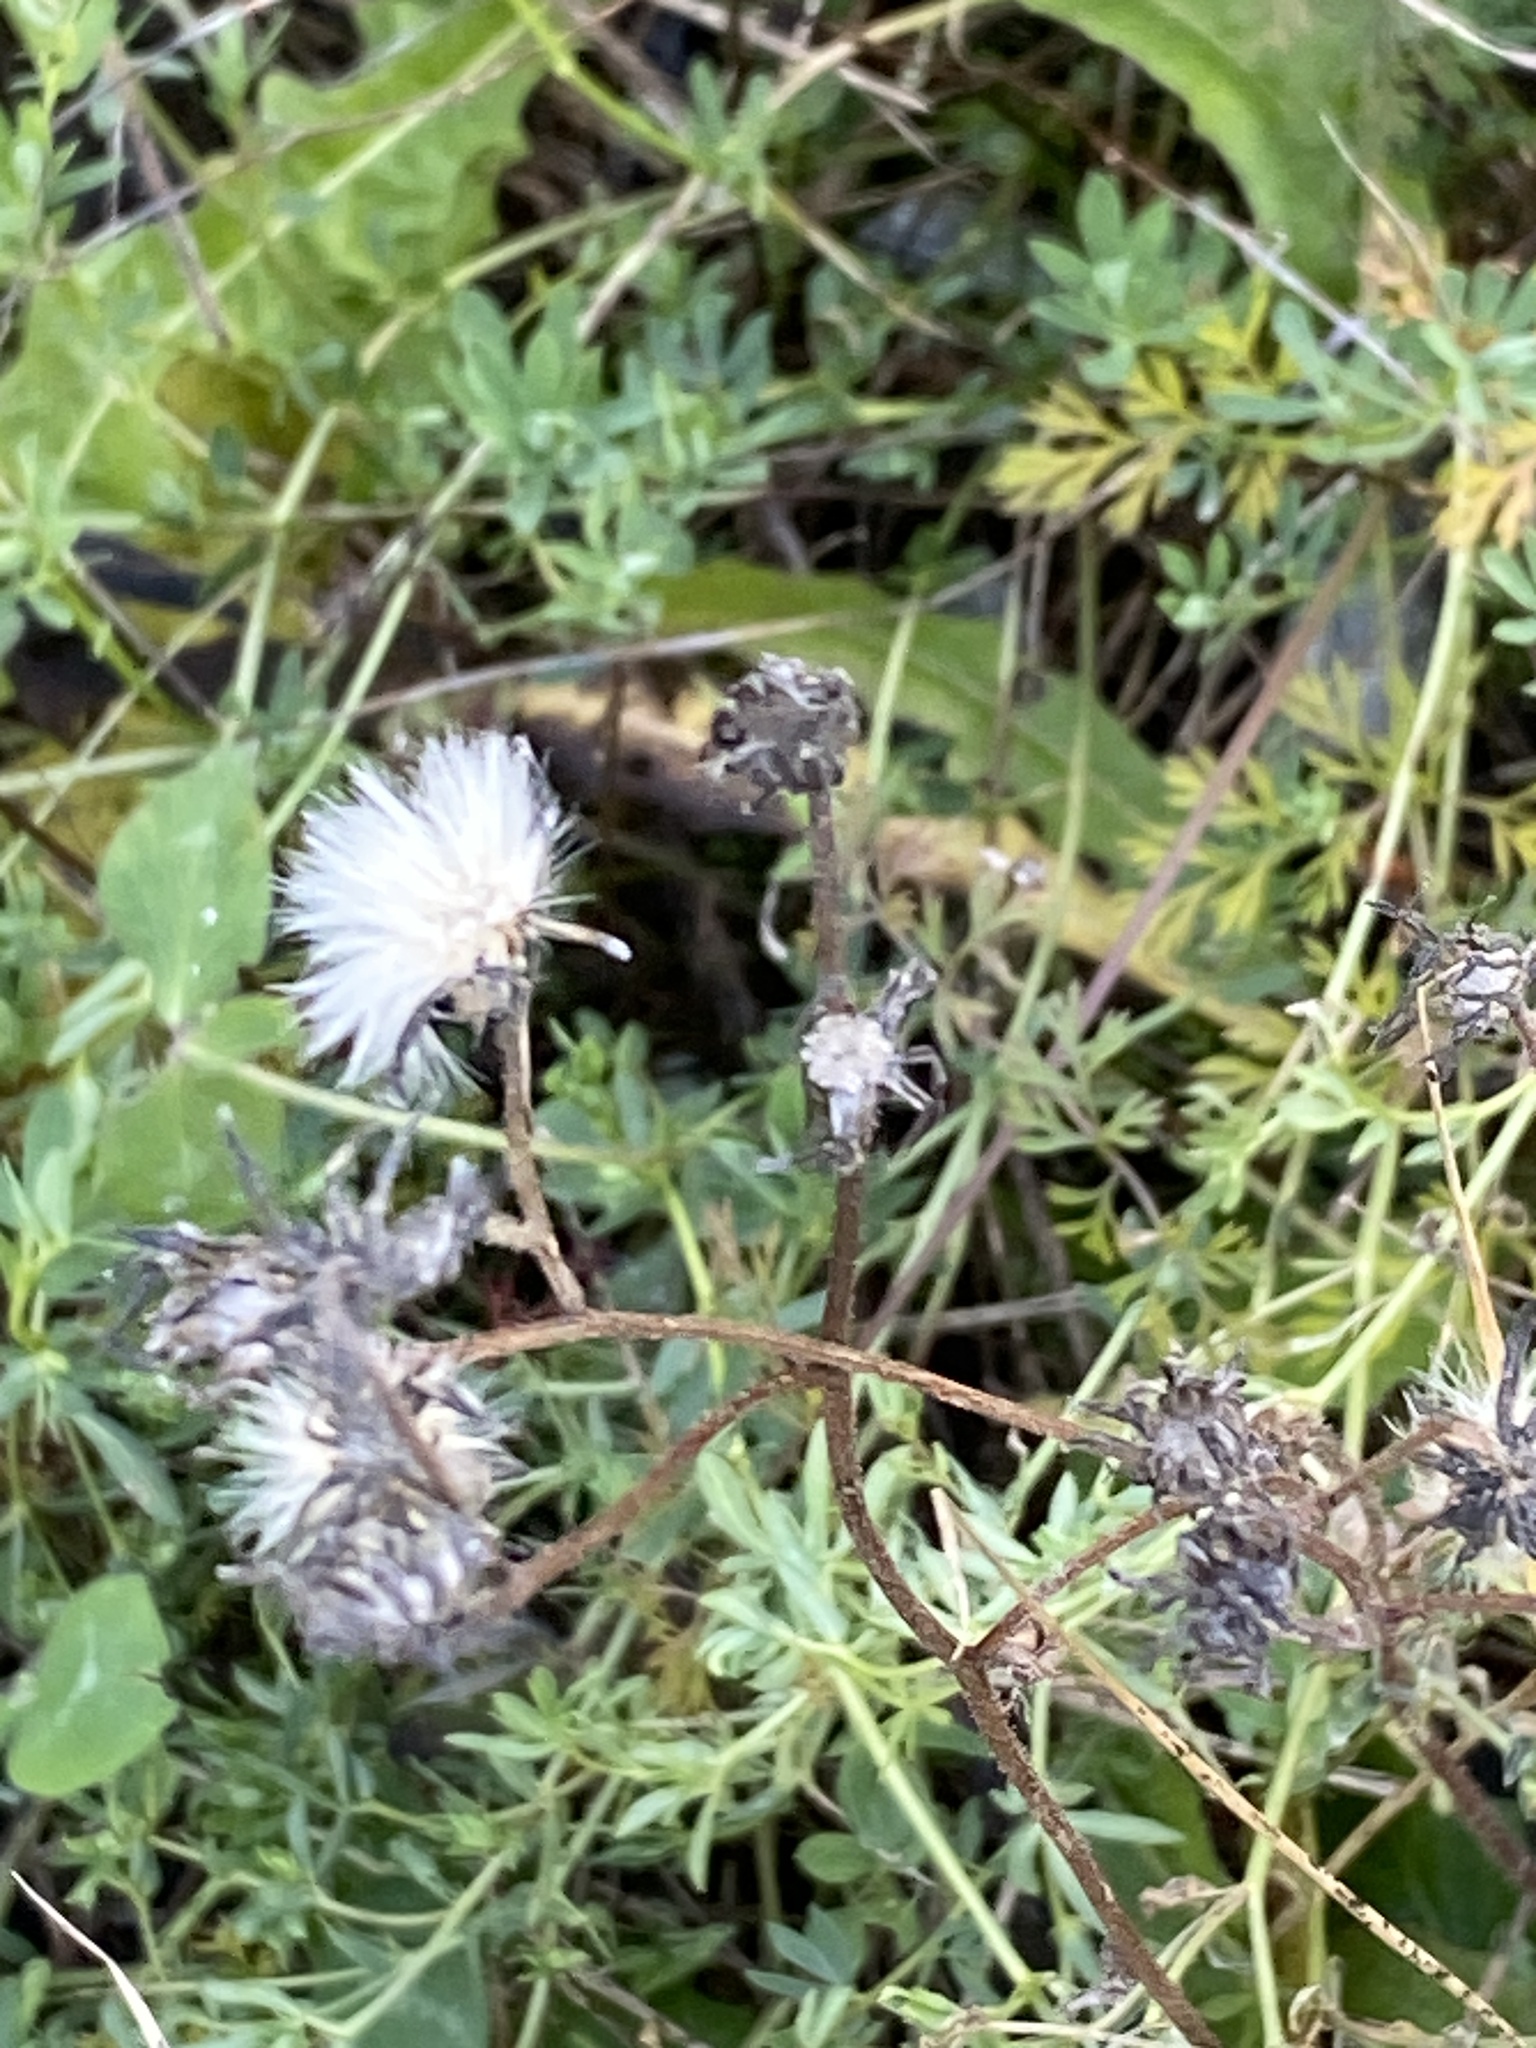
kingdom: Plantae
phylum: Tracheophyta
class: Magnoliopsida
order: Asterales
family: Asteraceae
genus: Picris
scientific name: Picris hieracioides
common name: Hawkweed oxtongue
